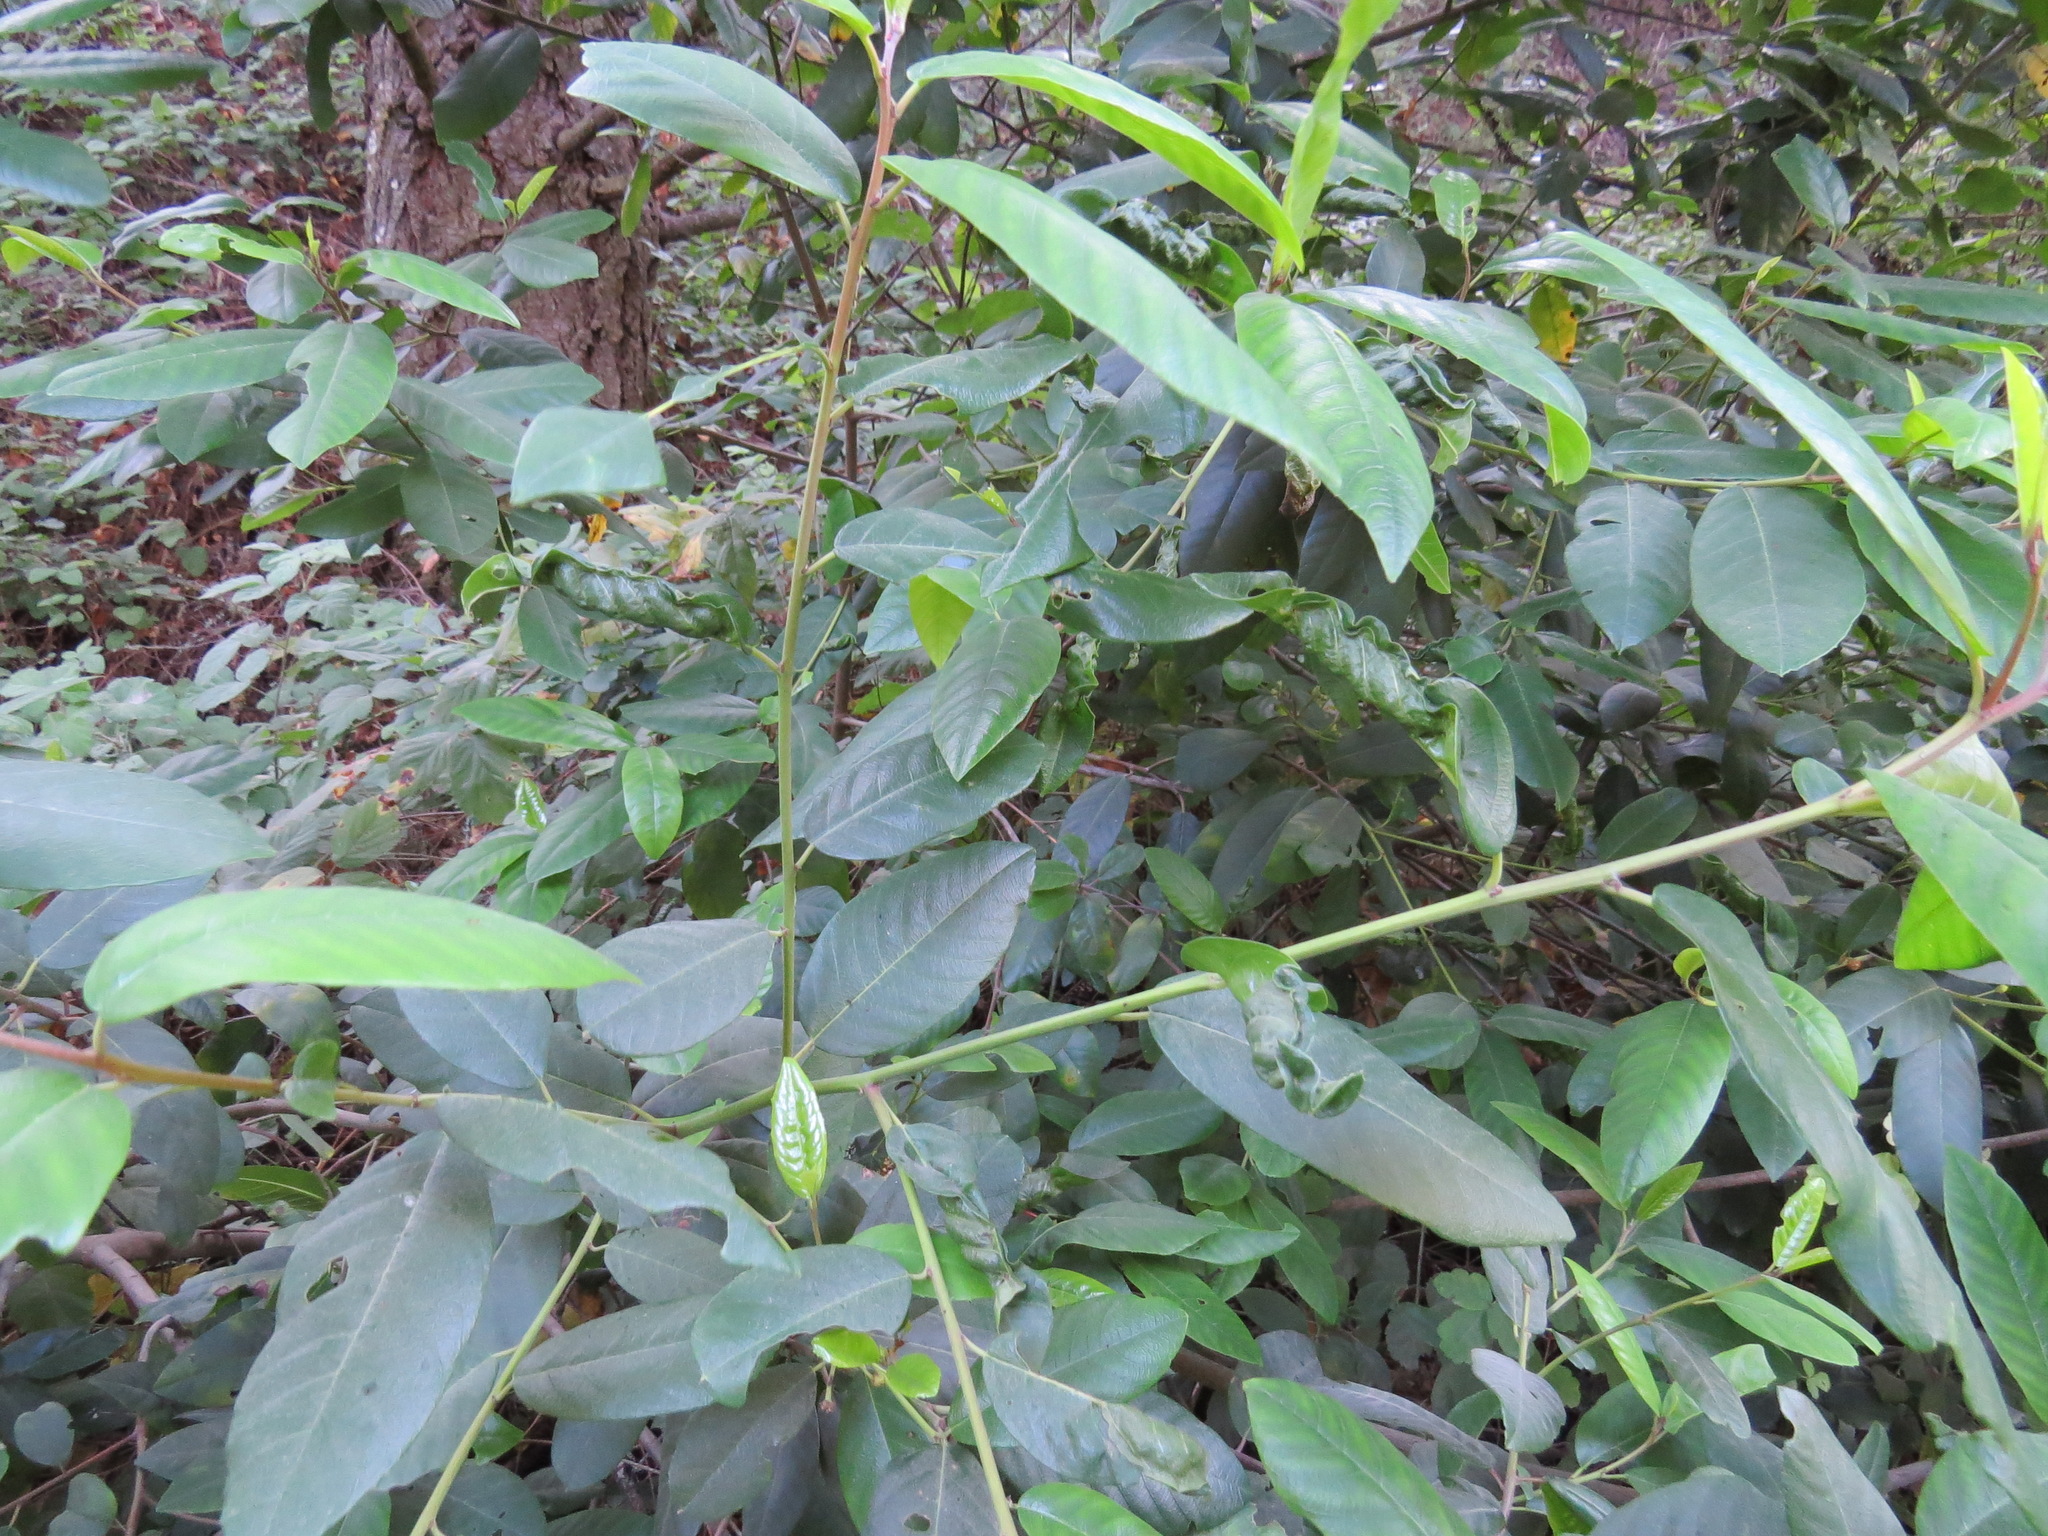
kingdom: Animalia
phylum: Arthropoda
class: Insecta
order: Lepidoptera
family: Cosmopterigidae
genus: Sorhagenia
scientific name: Sorhagenia nimbosus
